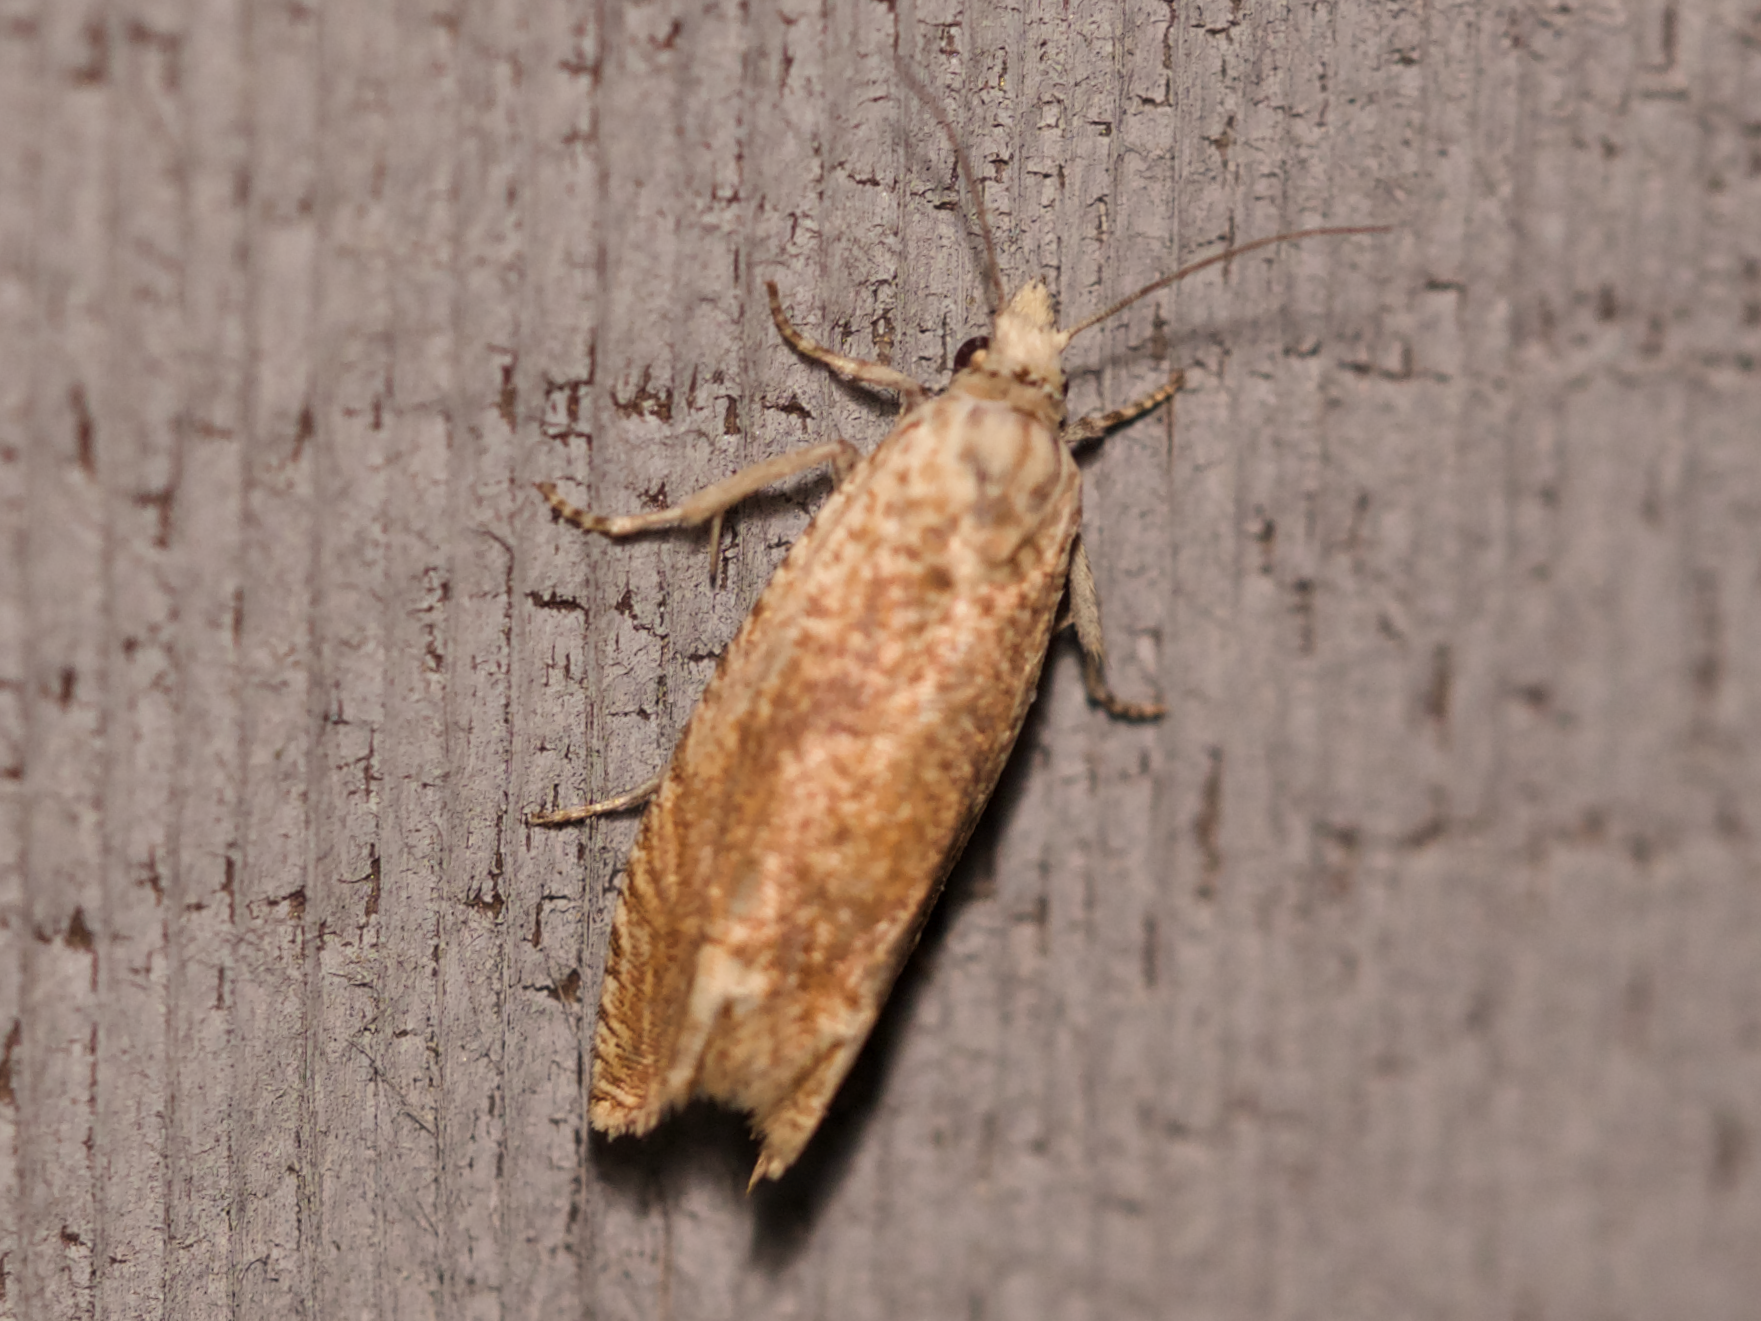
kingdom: Animalia
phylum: Arthropoda
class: Insecta
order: Lepidoptera
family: Tortricidae
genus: Pelochrista
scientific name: Pelochrista cataclystiana
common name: Goldenrod pelochrista moth
